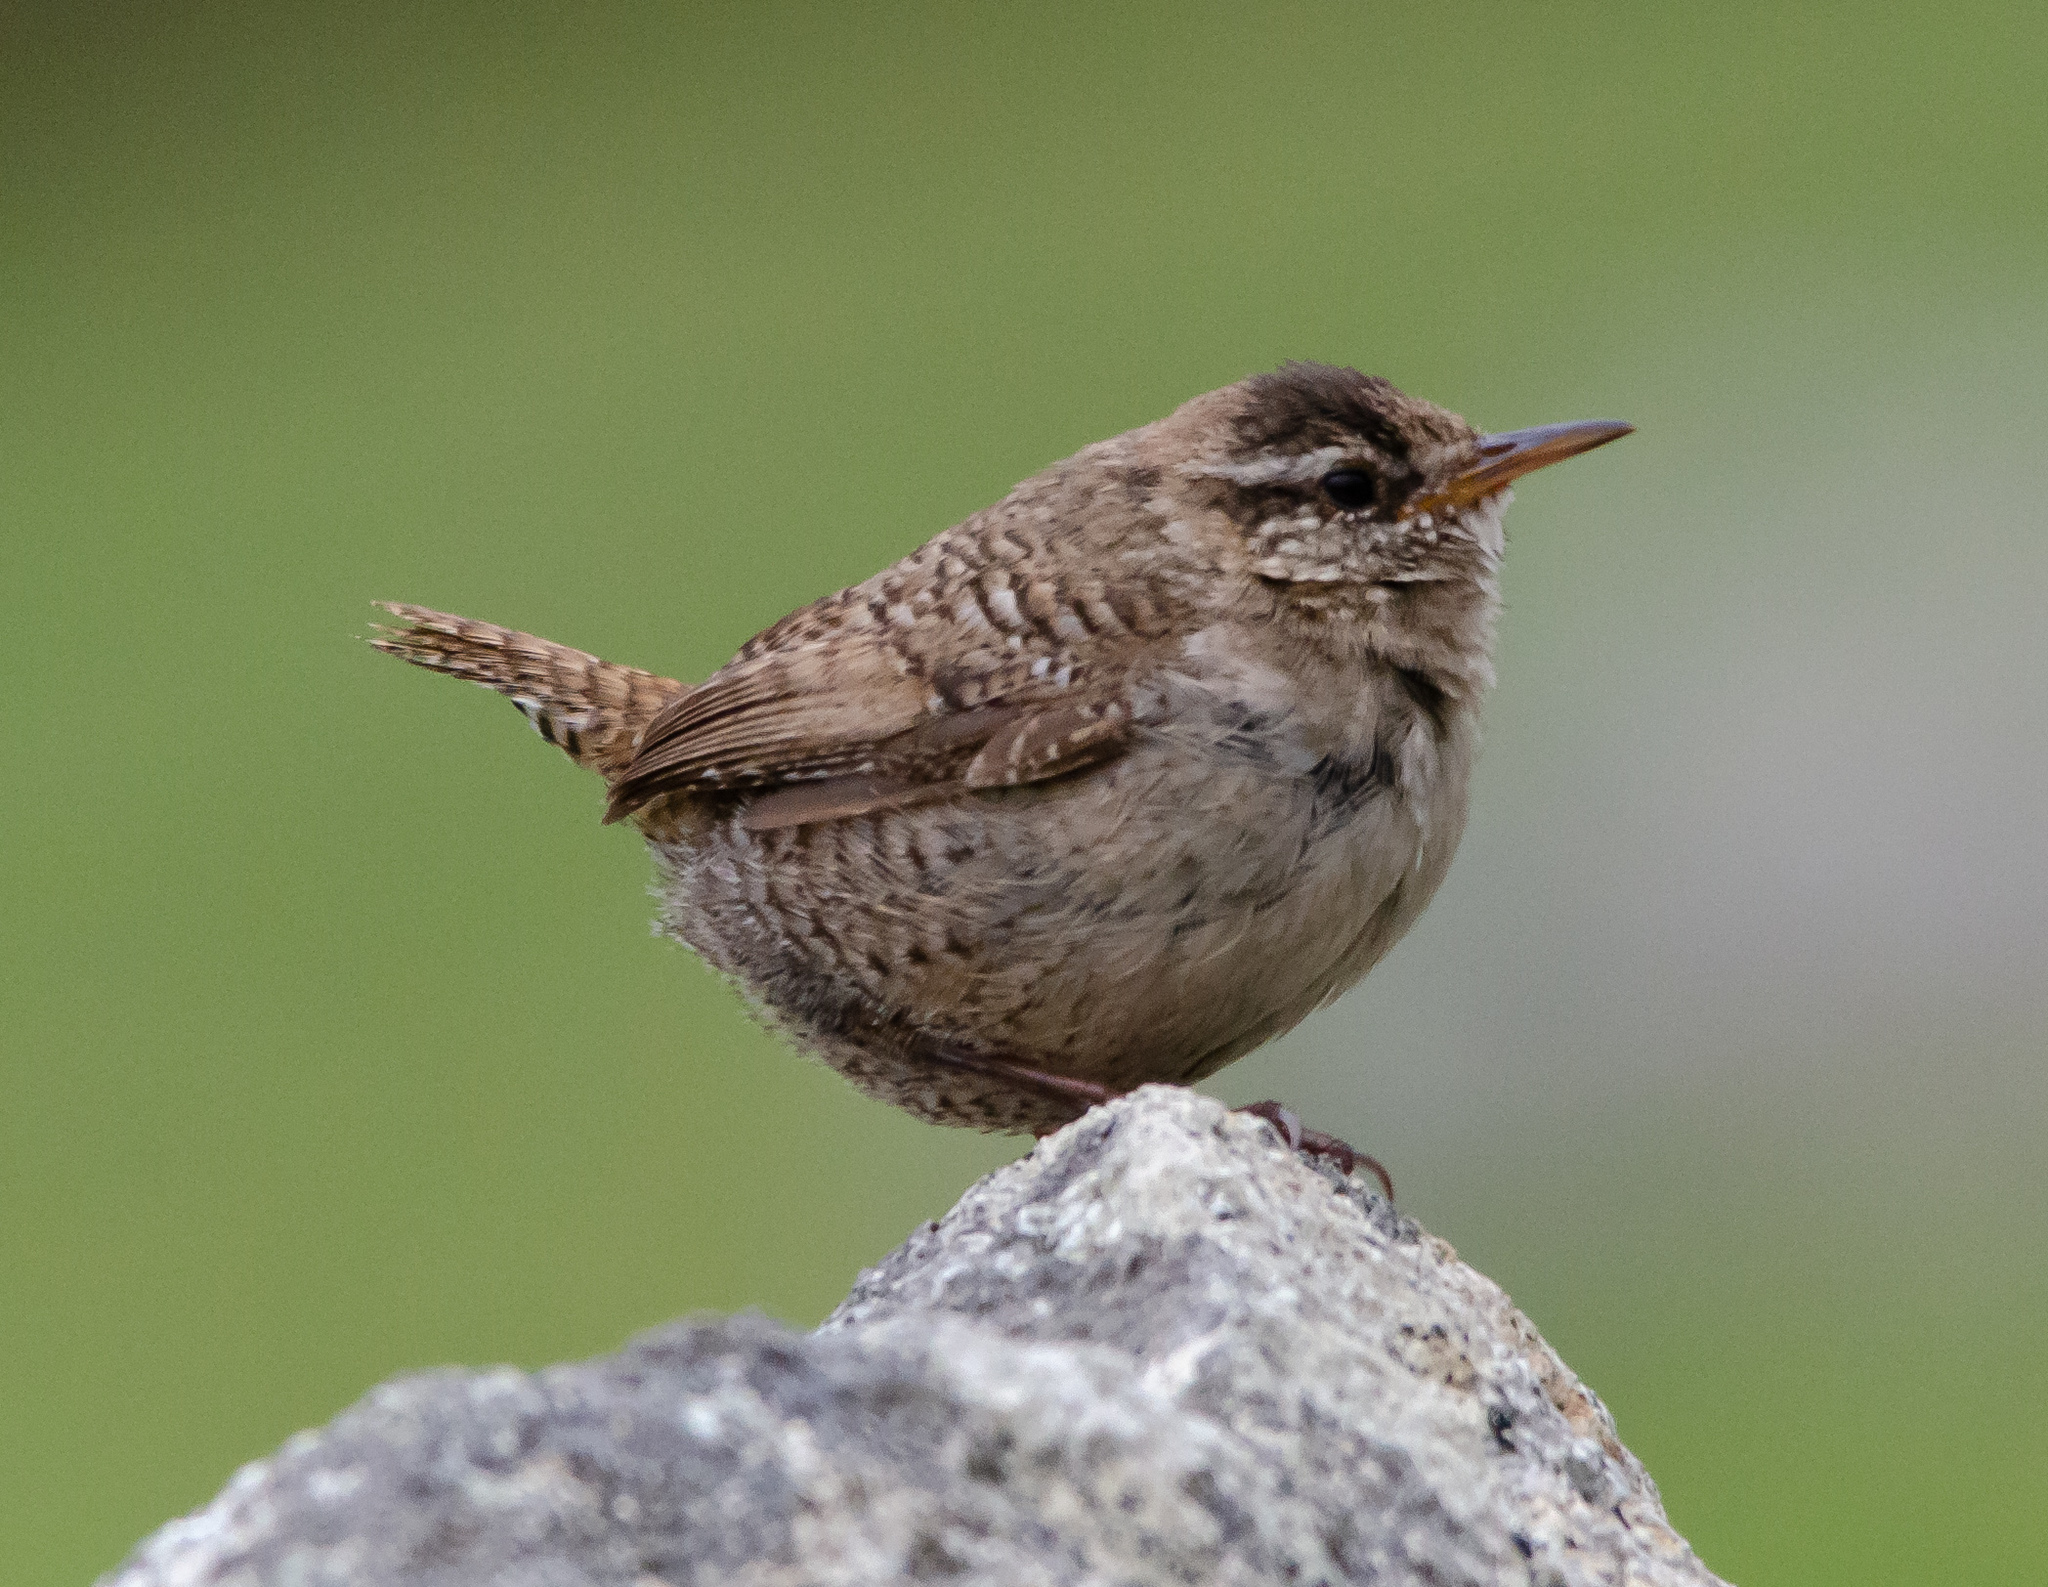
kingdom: Animalia
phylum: Chordata
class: Aves
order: Passeriformes
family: Troglodytidae
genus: Troglodytes
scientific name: Troglodytes troglodytes
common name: Eurasian wren
